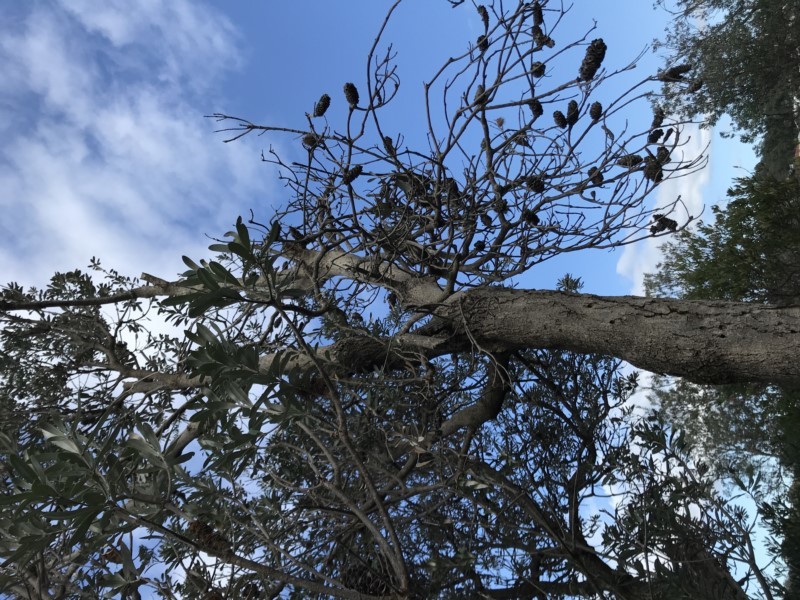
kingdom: Plantae
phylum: Tracheophyta
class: Magnoliopsida
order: Proteales
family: Proteaceae
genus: Banksia
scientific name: Banksia integrifolia
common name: White-honeysuckle
